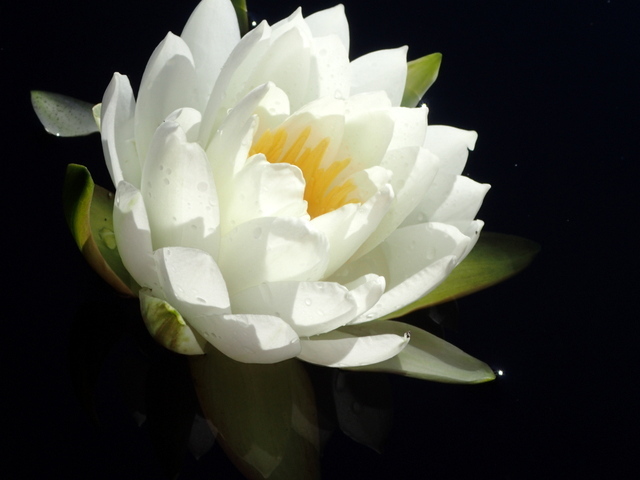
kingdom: Plantae
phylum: Tracheophyta
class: Magnoliopsida
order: Nymphaeales
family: Nymphaeaceae
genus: Nymphaea
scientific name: Nymphaea odorata
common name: Fragrant water-lily
